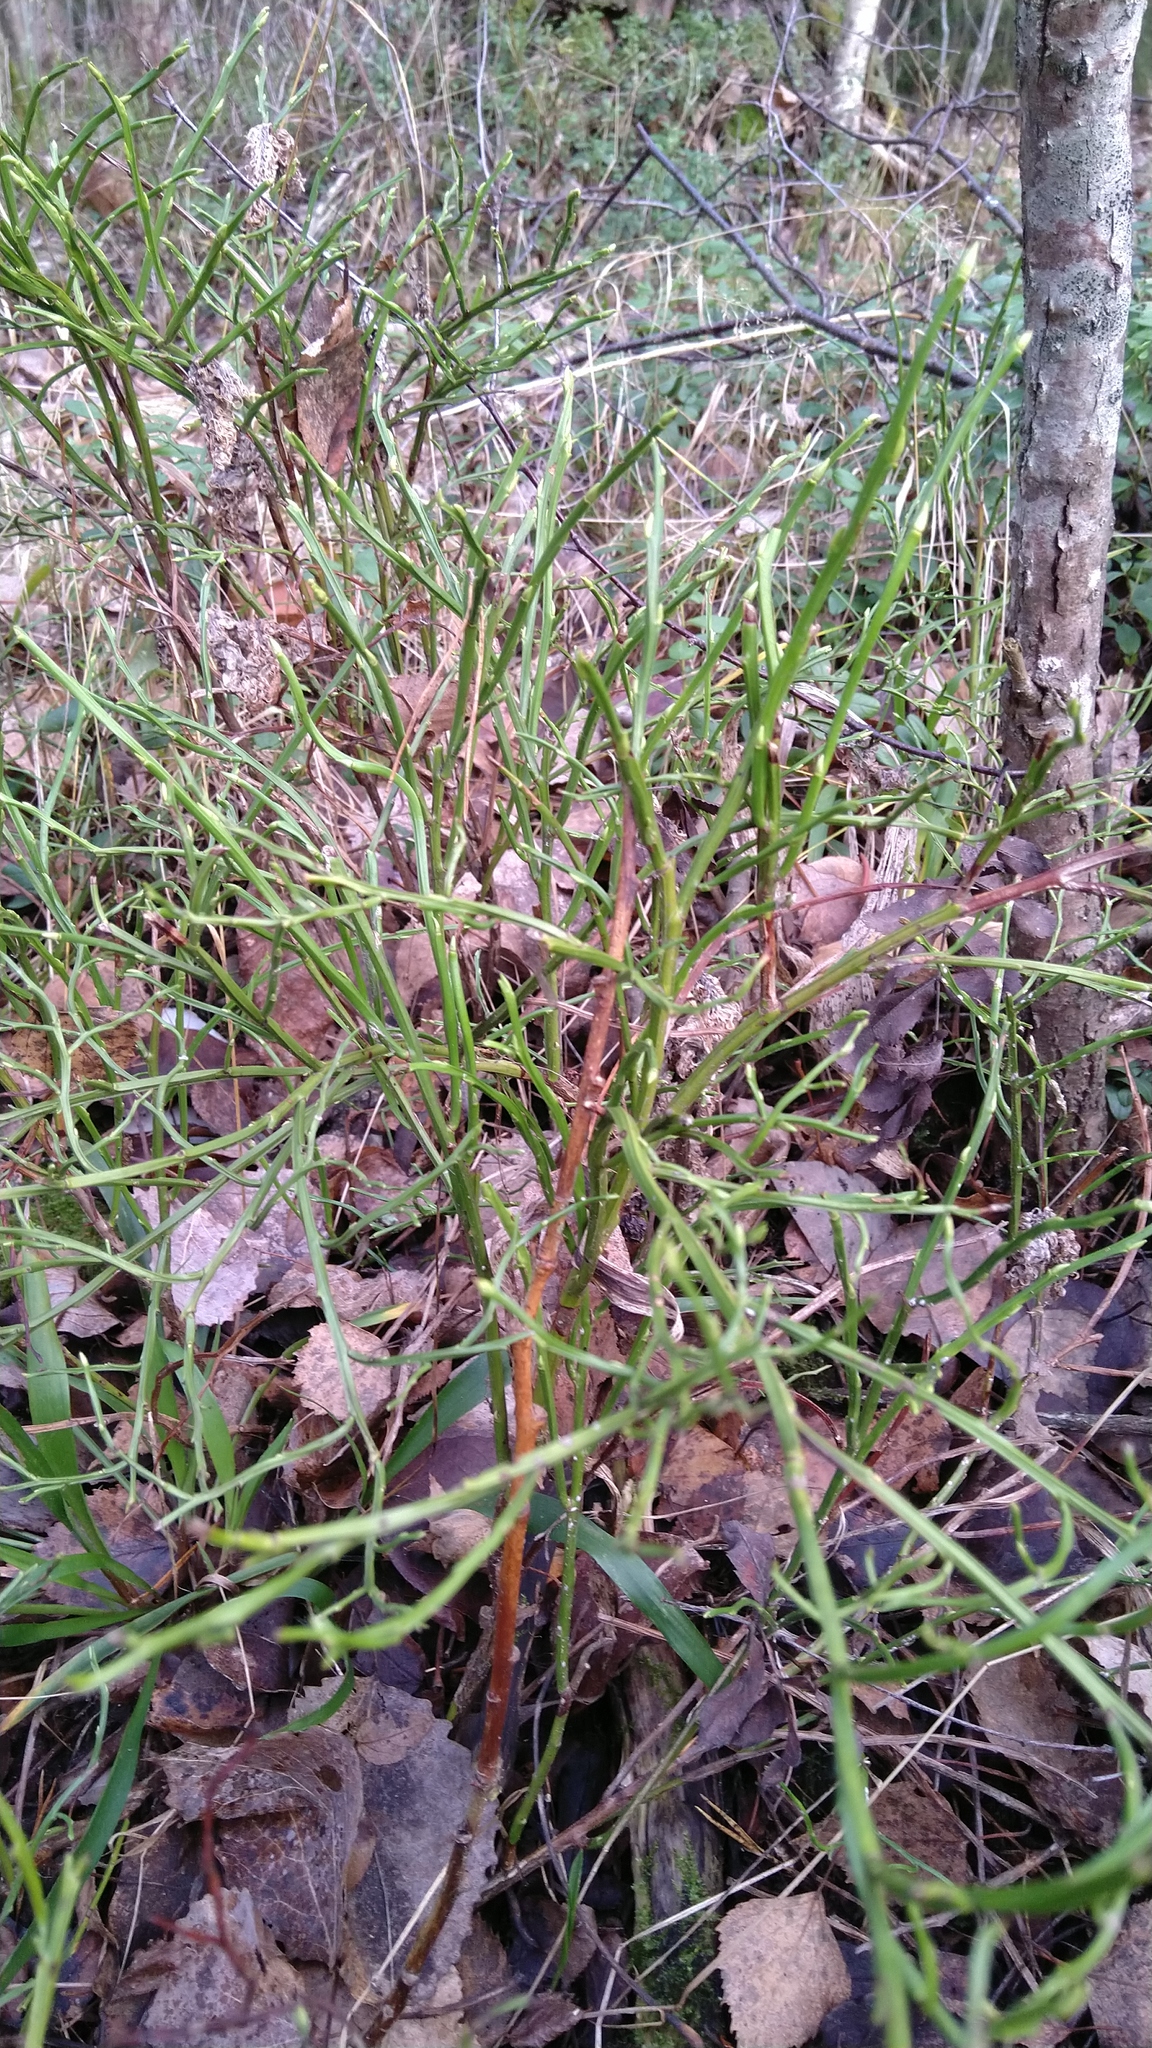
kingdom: Plantae
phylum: Tracheophyta
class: Magnoliopsida
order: Ericales
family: Ericaceae
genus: Vaccinium
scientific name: Vaccinium myrtillus
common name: Bilberry
